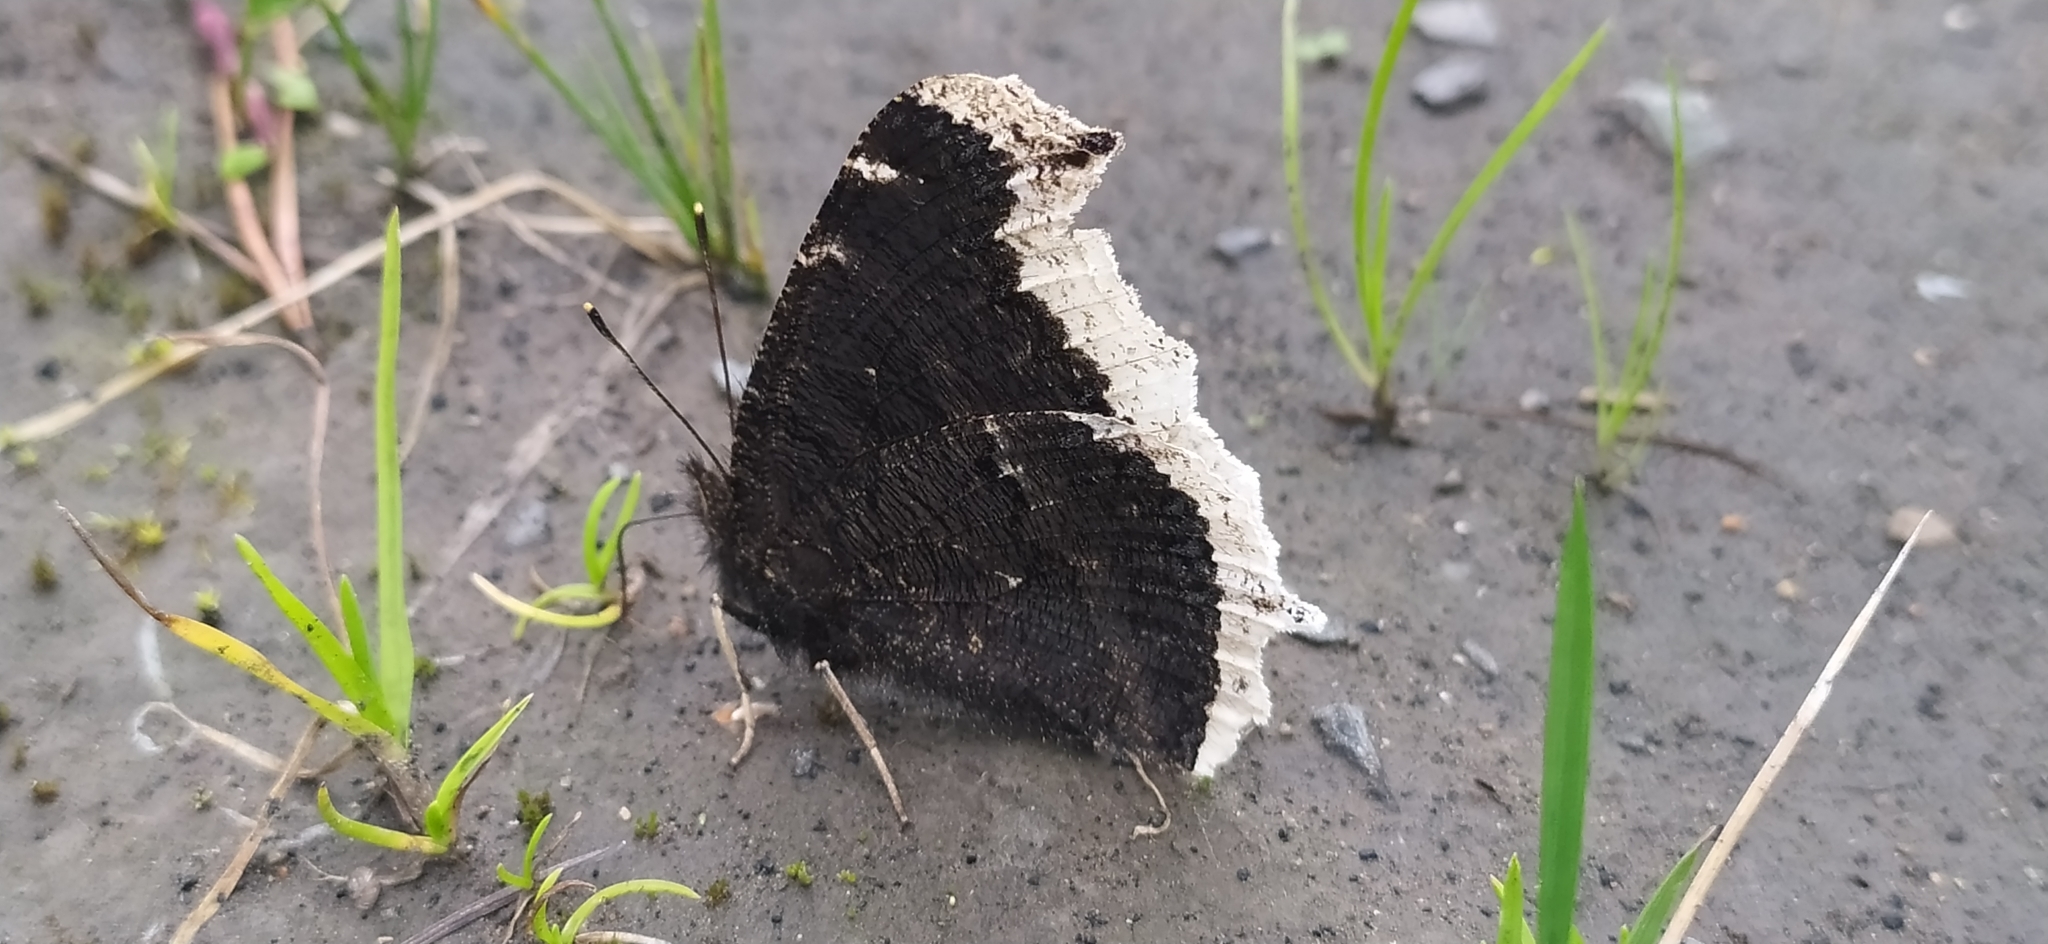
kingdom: Animalia
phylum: Arthropoda
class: Insecta
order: Lepidoptera
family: Nymphalidae
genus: Nymphalis
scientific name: Nymphalis antiopa
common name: Camberwell beauty
